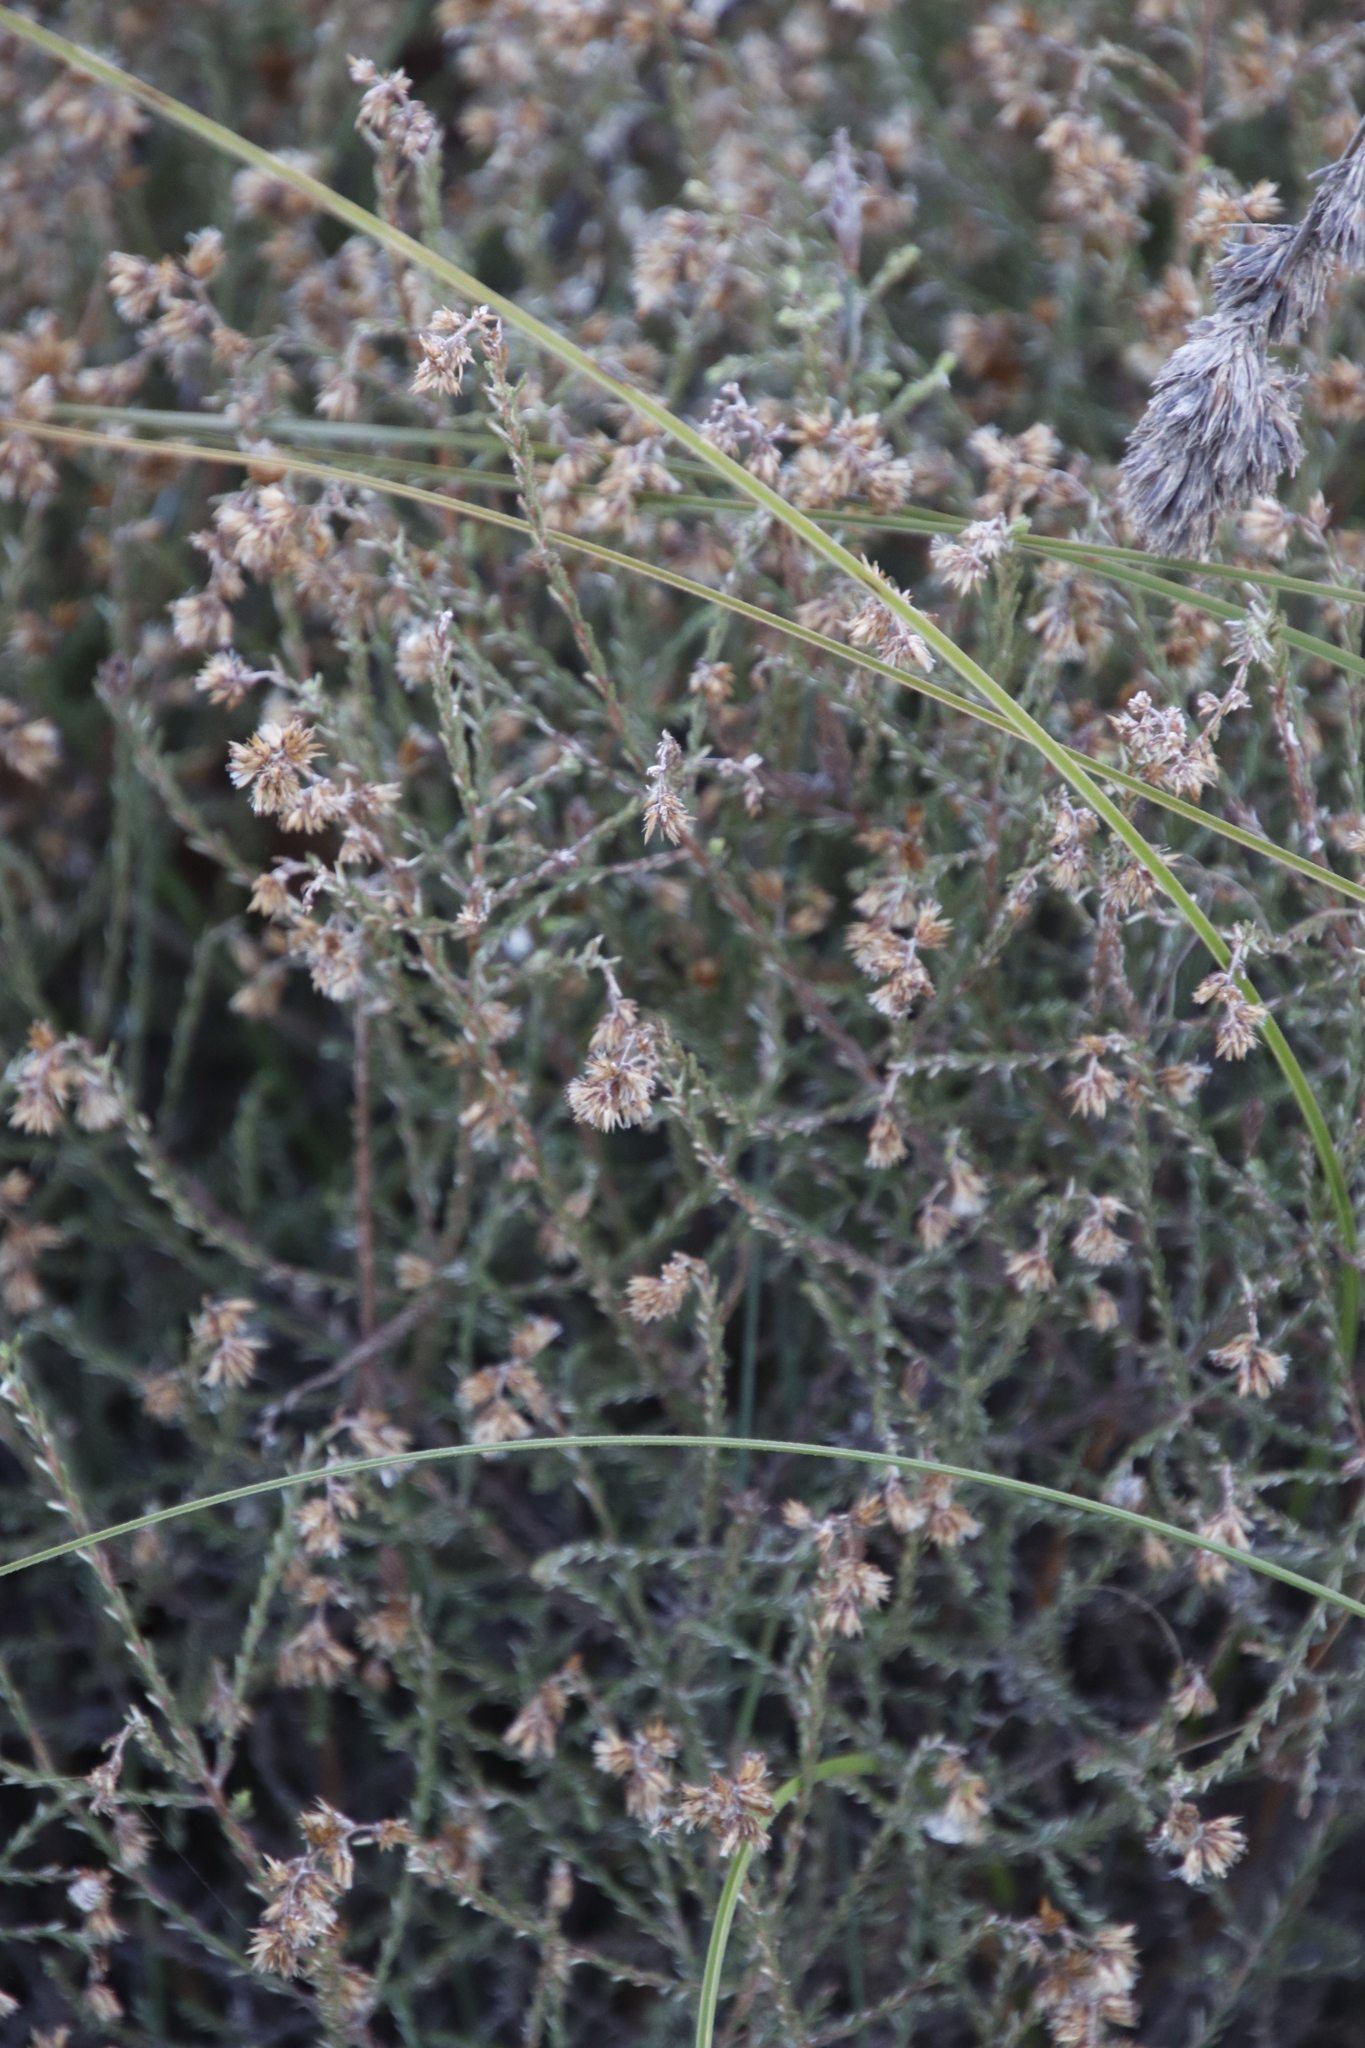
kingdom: Plantae
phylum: Tracheophyta
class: Magnoliopsida
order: Asterales
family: Asteraceae
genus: Myrovernix
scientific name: Myrovernix scaber
